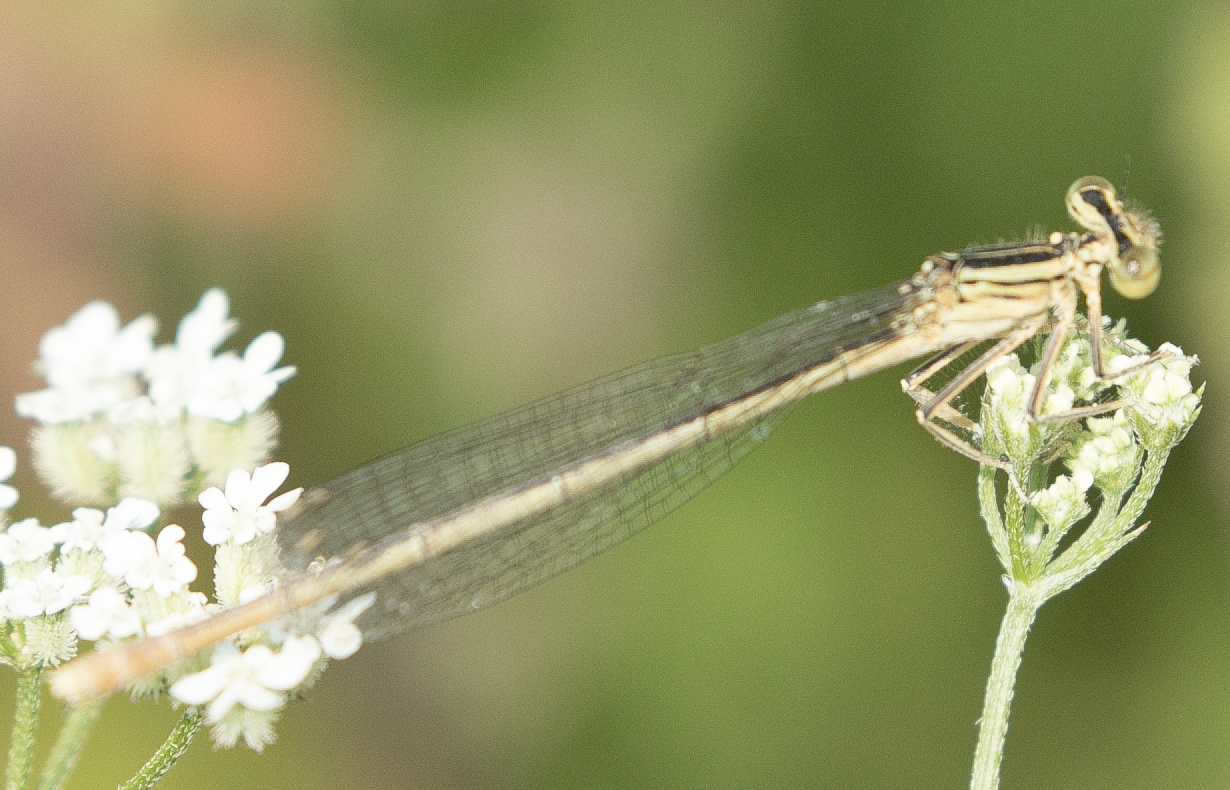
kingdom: Animalia
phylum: Arthropoda
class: Insecta
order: Odonata
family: Platycnemididae
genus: Platycnemis
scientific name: Platycnemis pennipes
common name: White-legged damselfly
